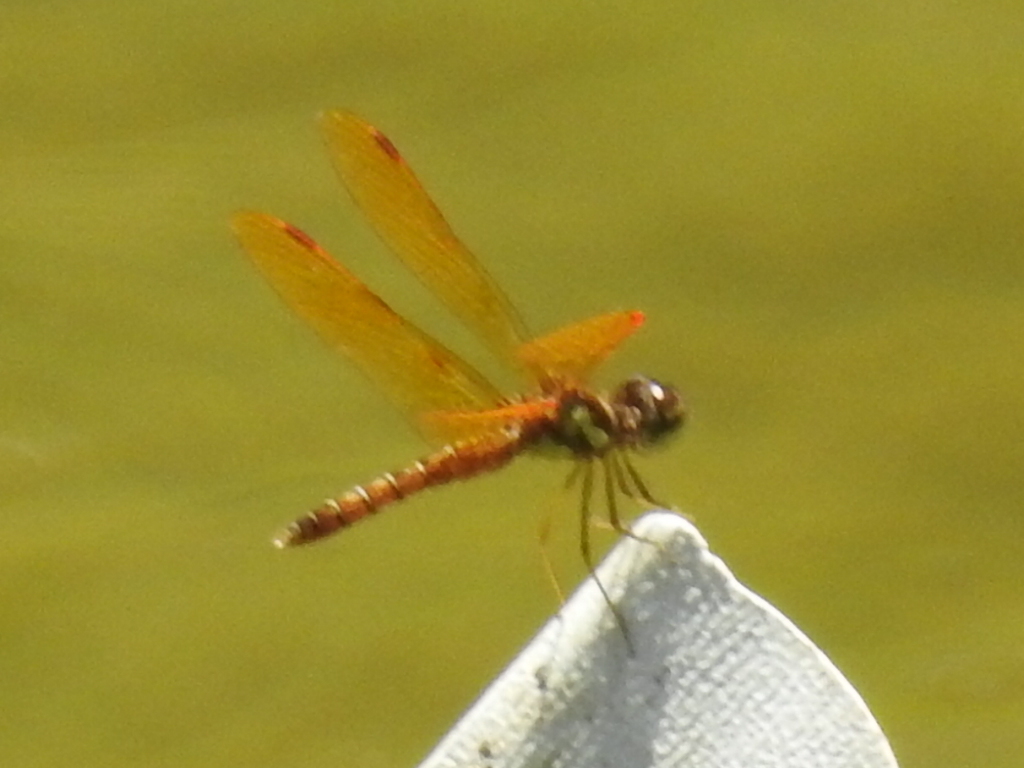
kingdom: Animalia
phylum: Arthropoda
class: Insecta
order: Odonata
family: Libellulidae
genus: Perithemis
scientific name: Perithemis tenera
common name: Eastern amberwing
